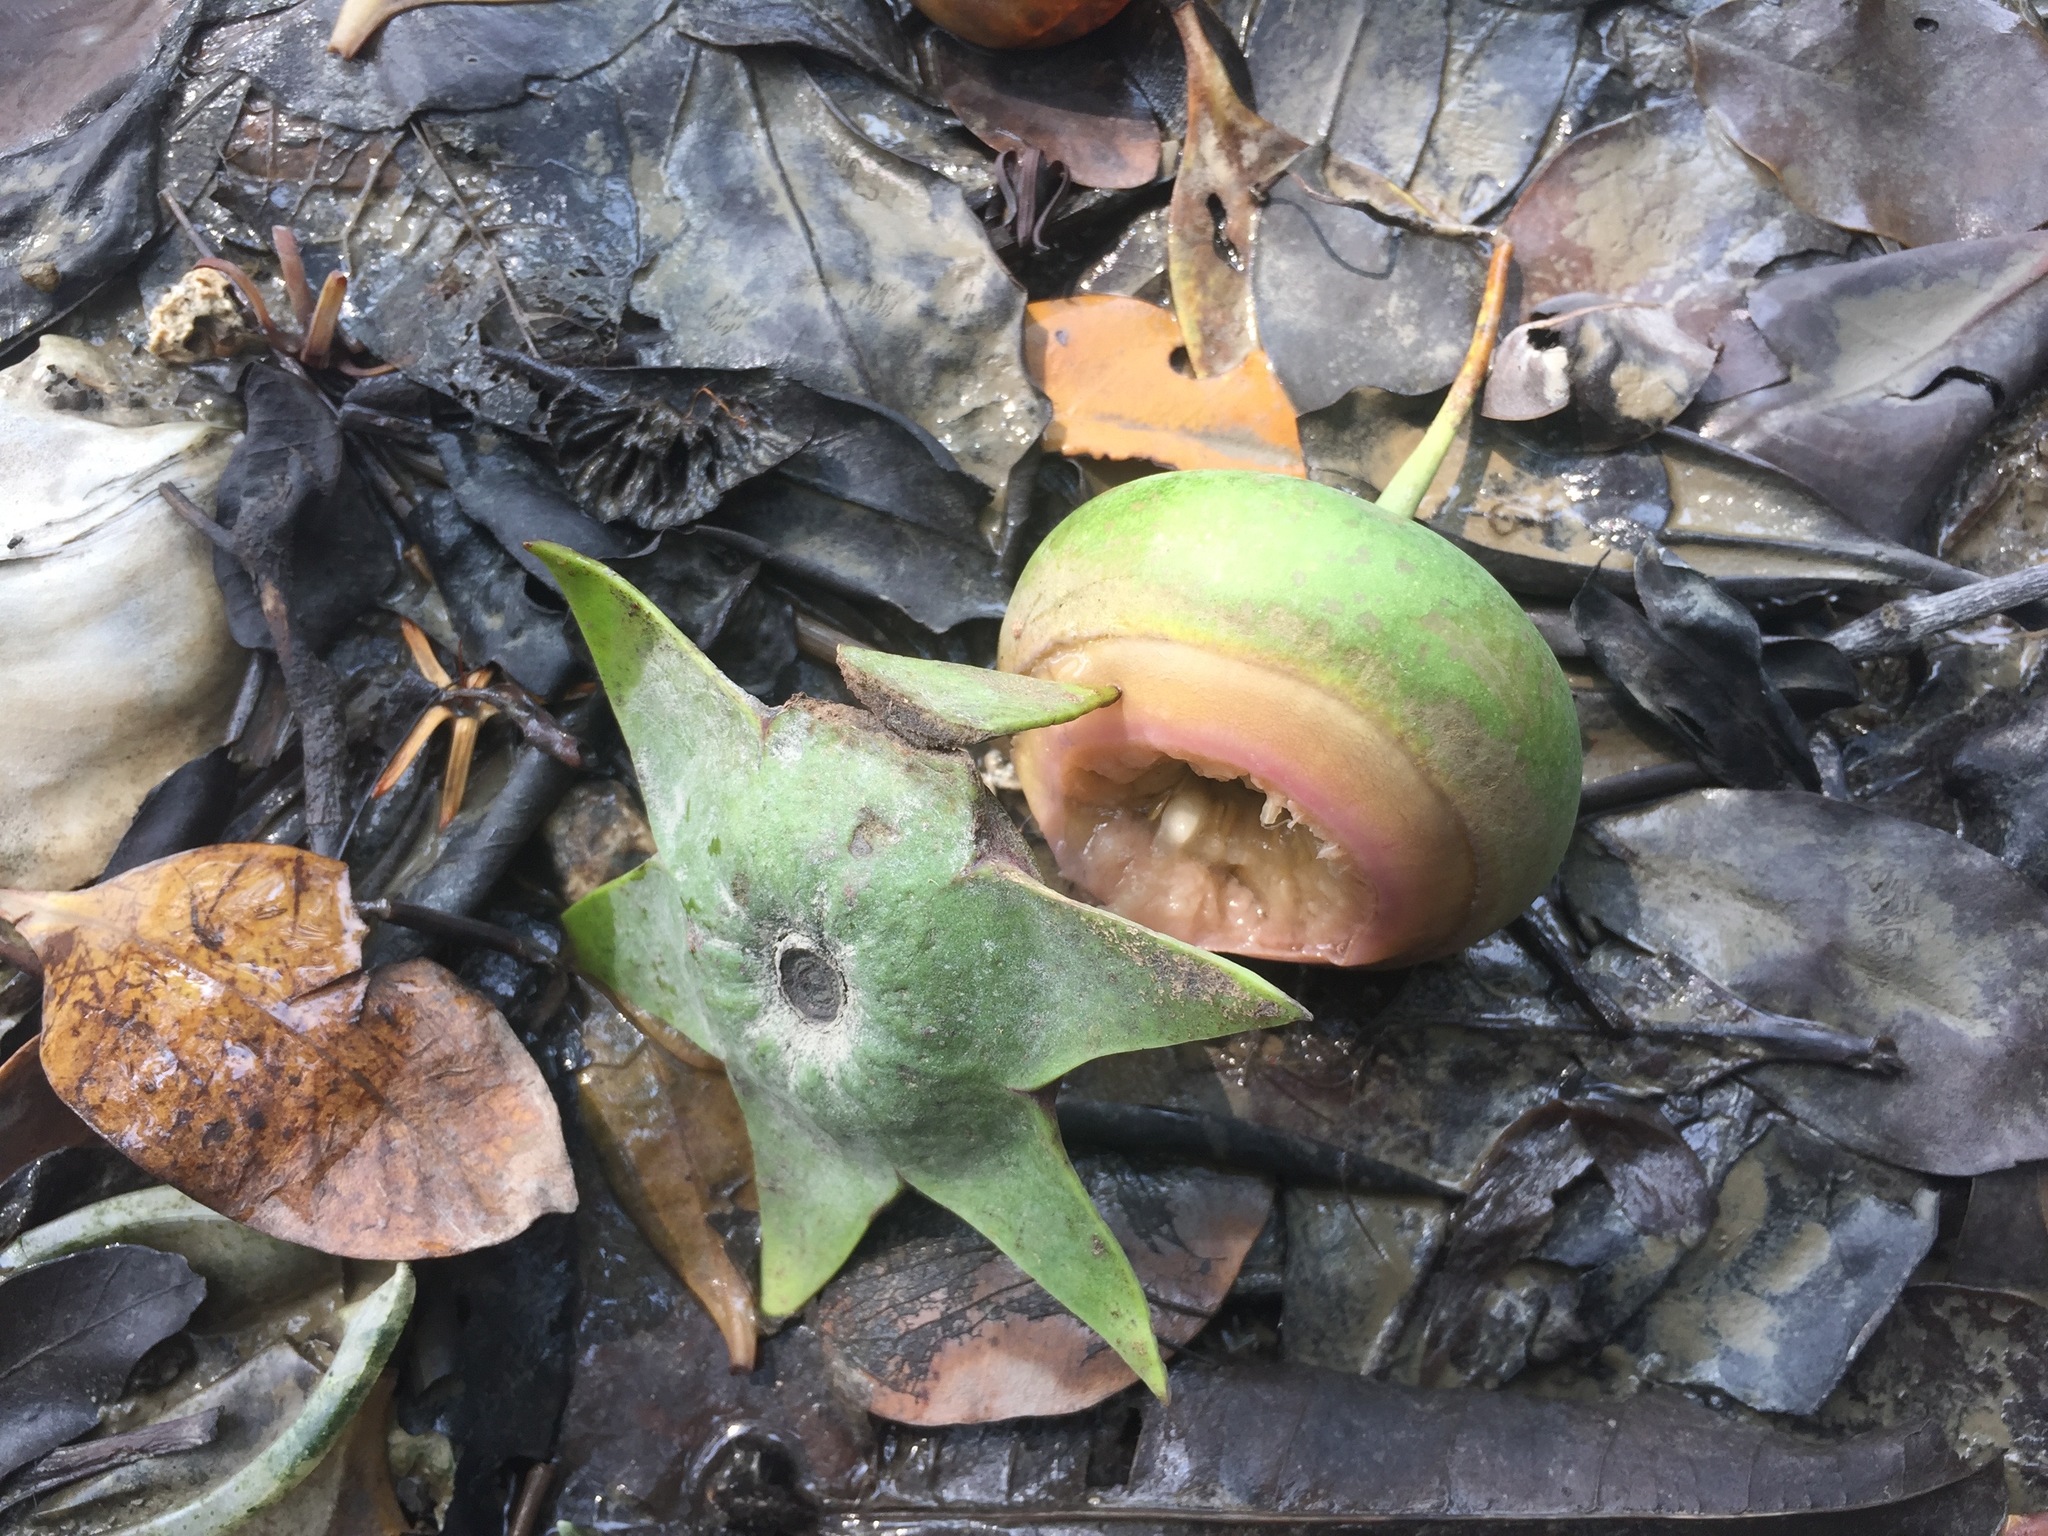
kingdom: Plantae
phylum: Tracheophyta
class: Magnoliopsida
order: Myrtales
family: Lythraceae
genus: Sonneratia
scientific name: Sonneratia caseolaris
